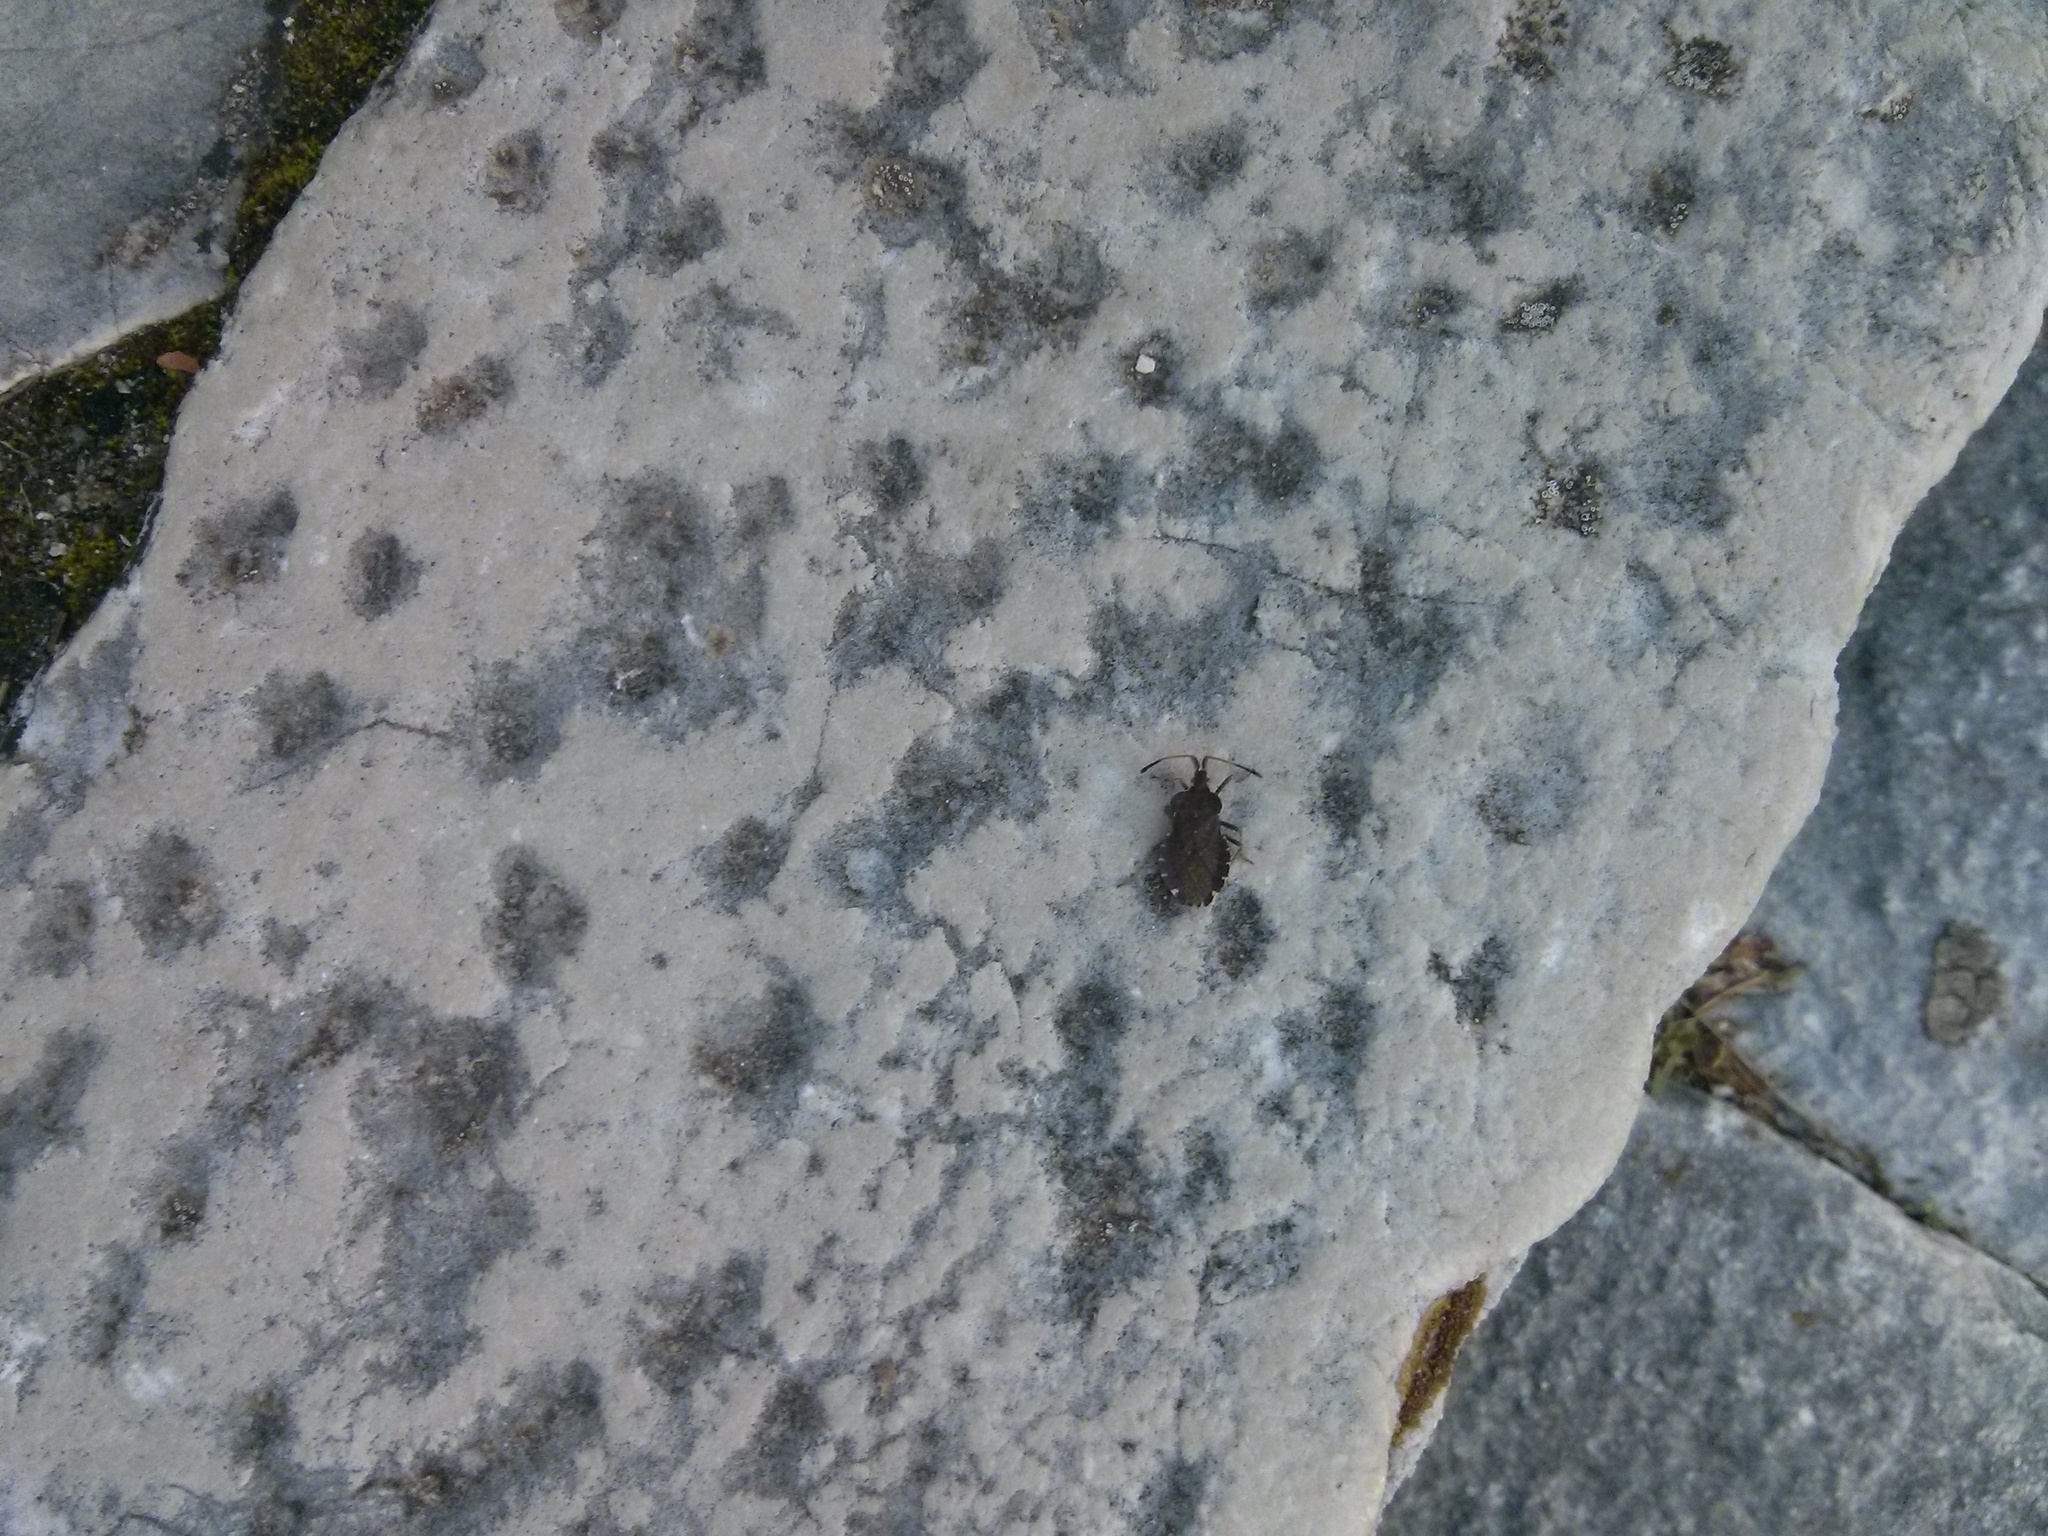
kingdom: Animalia
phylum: Arthropoda
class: Insecta
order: Hemiptera
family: Coreidae
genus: Enoplops
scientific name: Enoplops scapha
